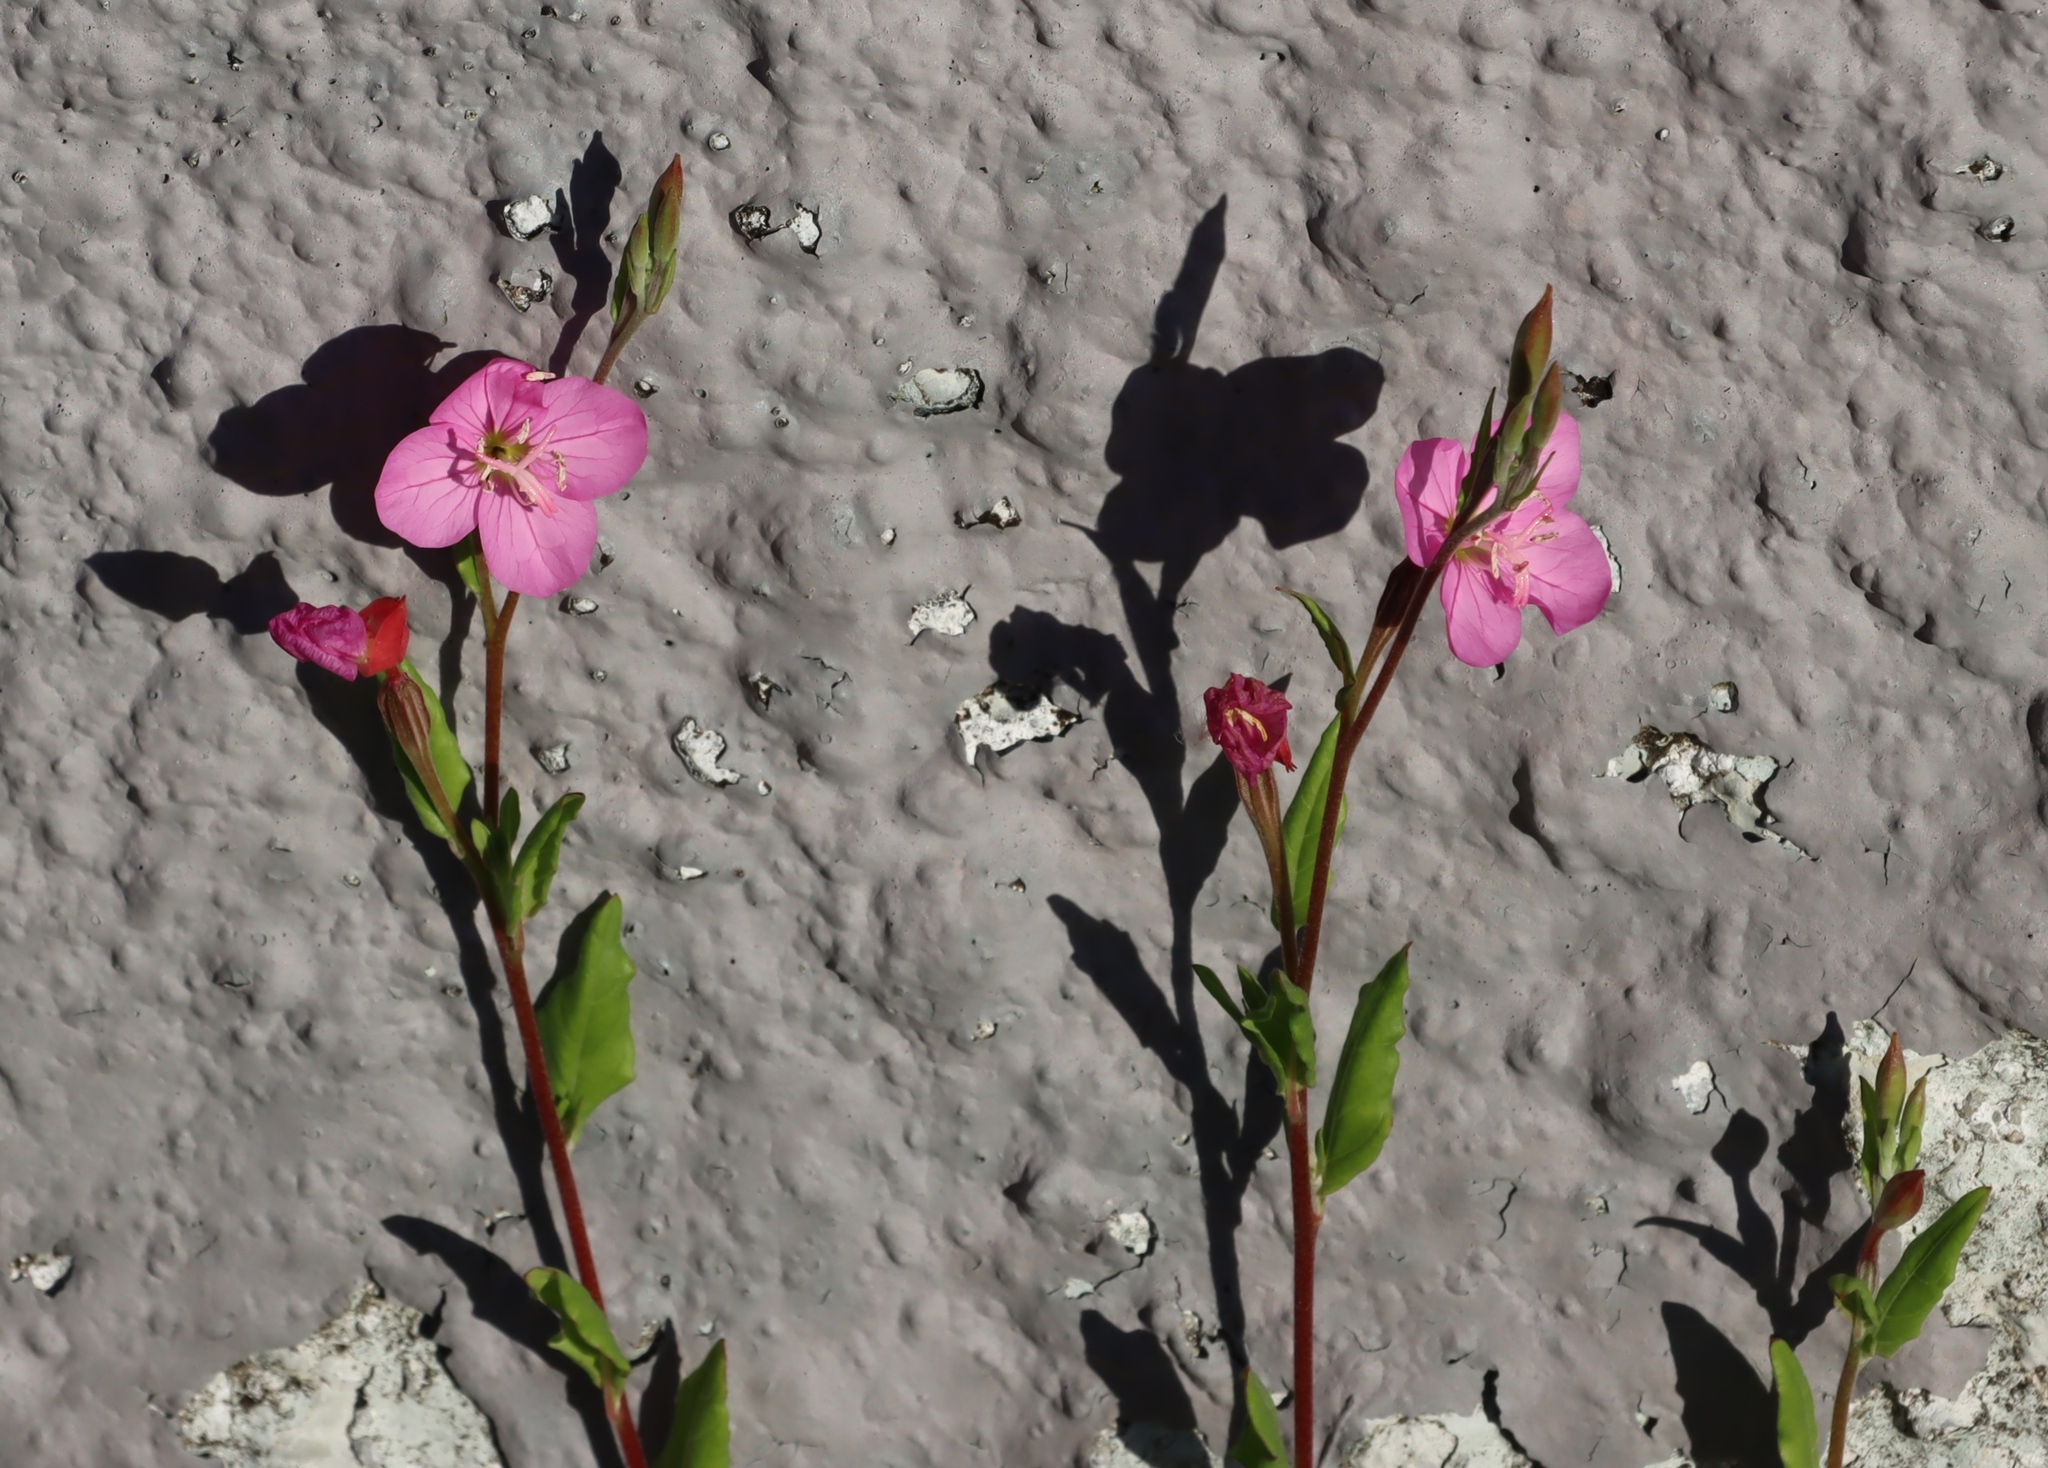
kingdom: Plantae
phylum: Tracheophyta
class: Magnoliopsida
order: Myrtales
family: Onagraceae
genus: Oenothera
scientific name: Oenothera rosea
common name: Rosy evening-primrose
